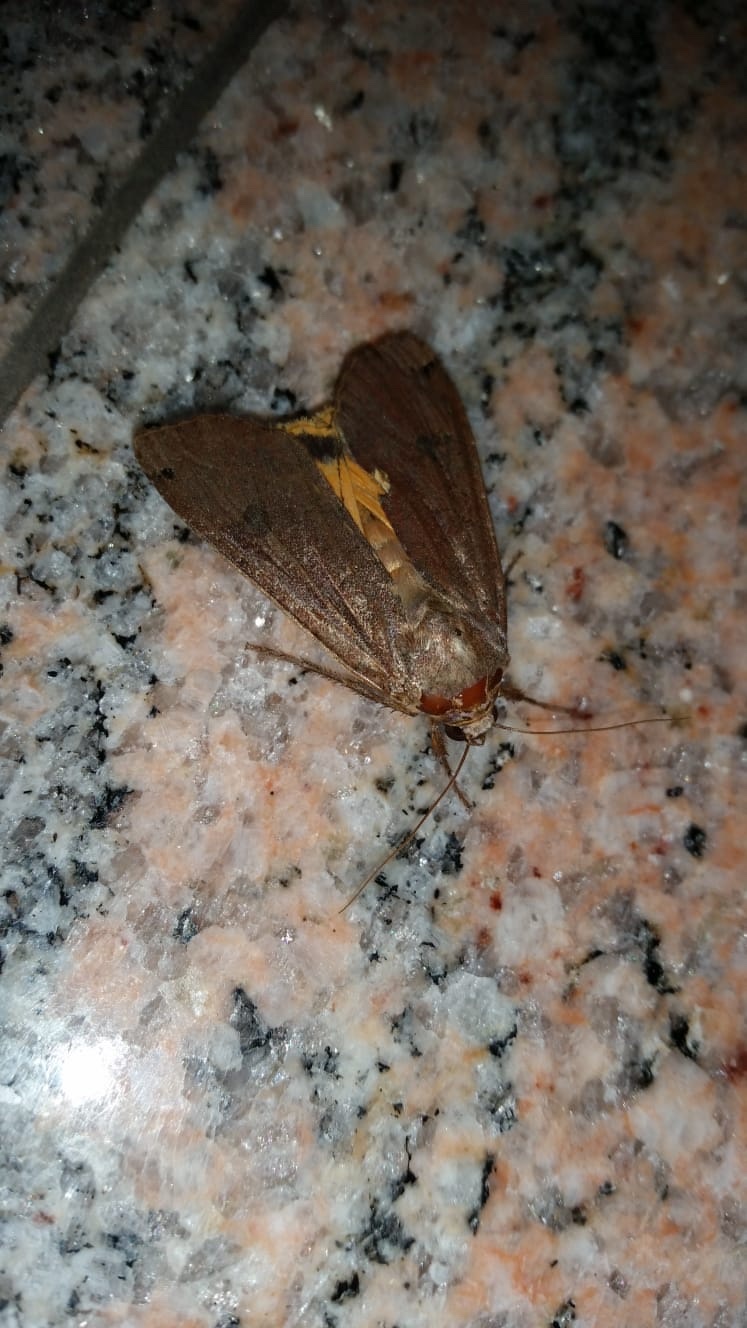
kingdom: Animalia
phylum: Arthropoda
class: Insecta
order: Lepidoptera
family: Noctuidae
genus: Noctua
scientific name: Noctua pronuba
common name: Large yellow underwing
